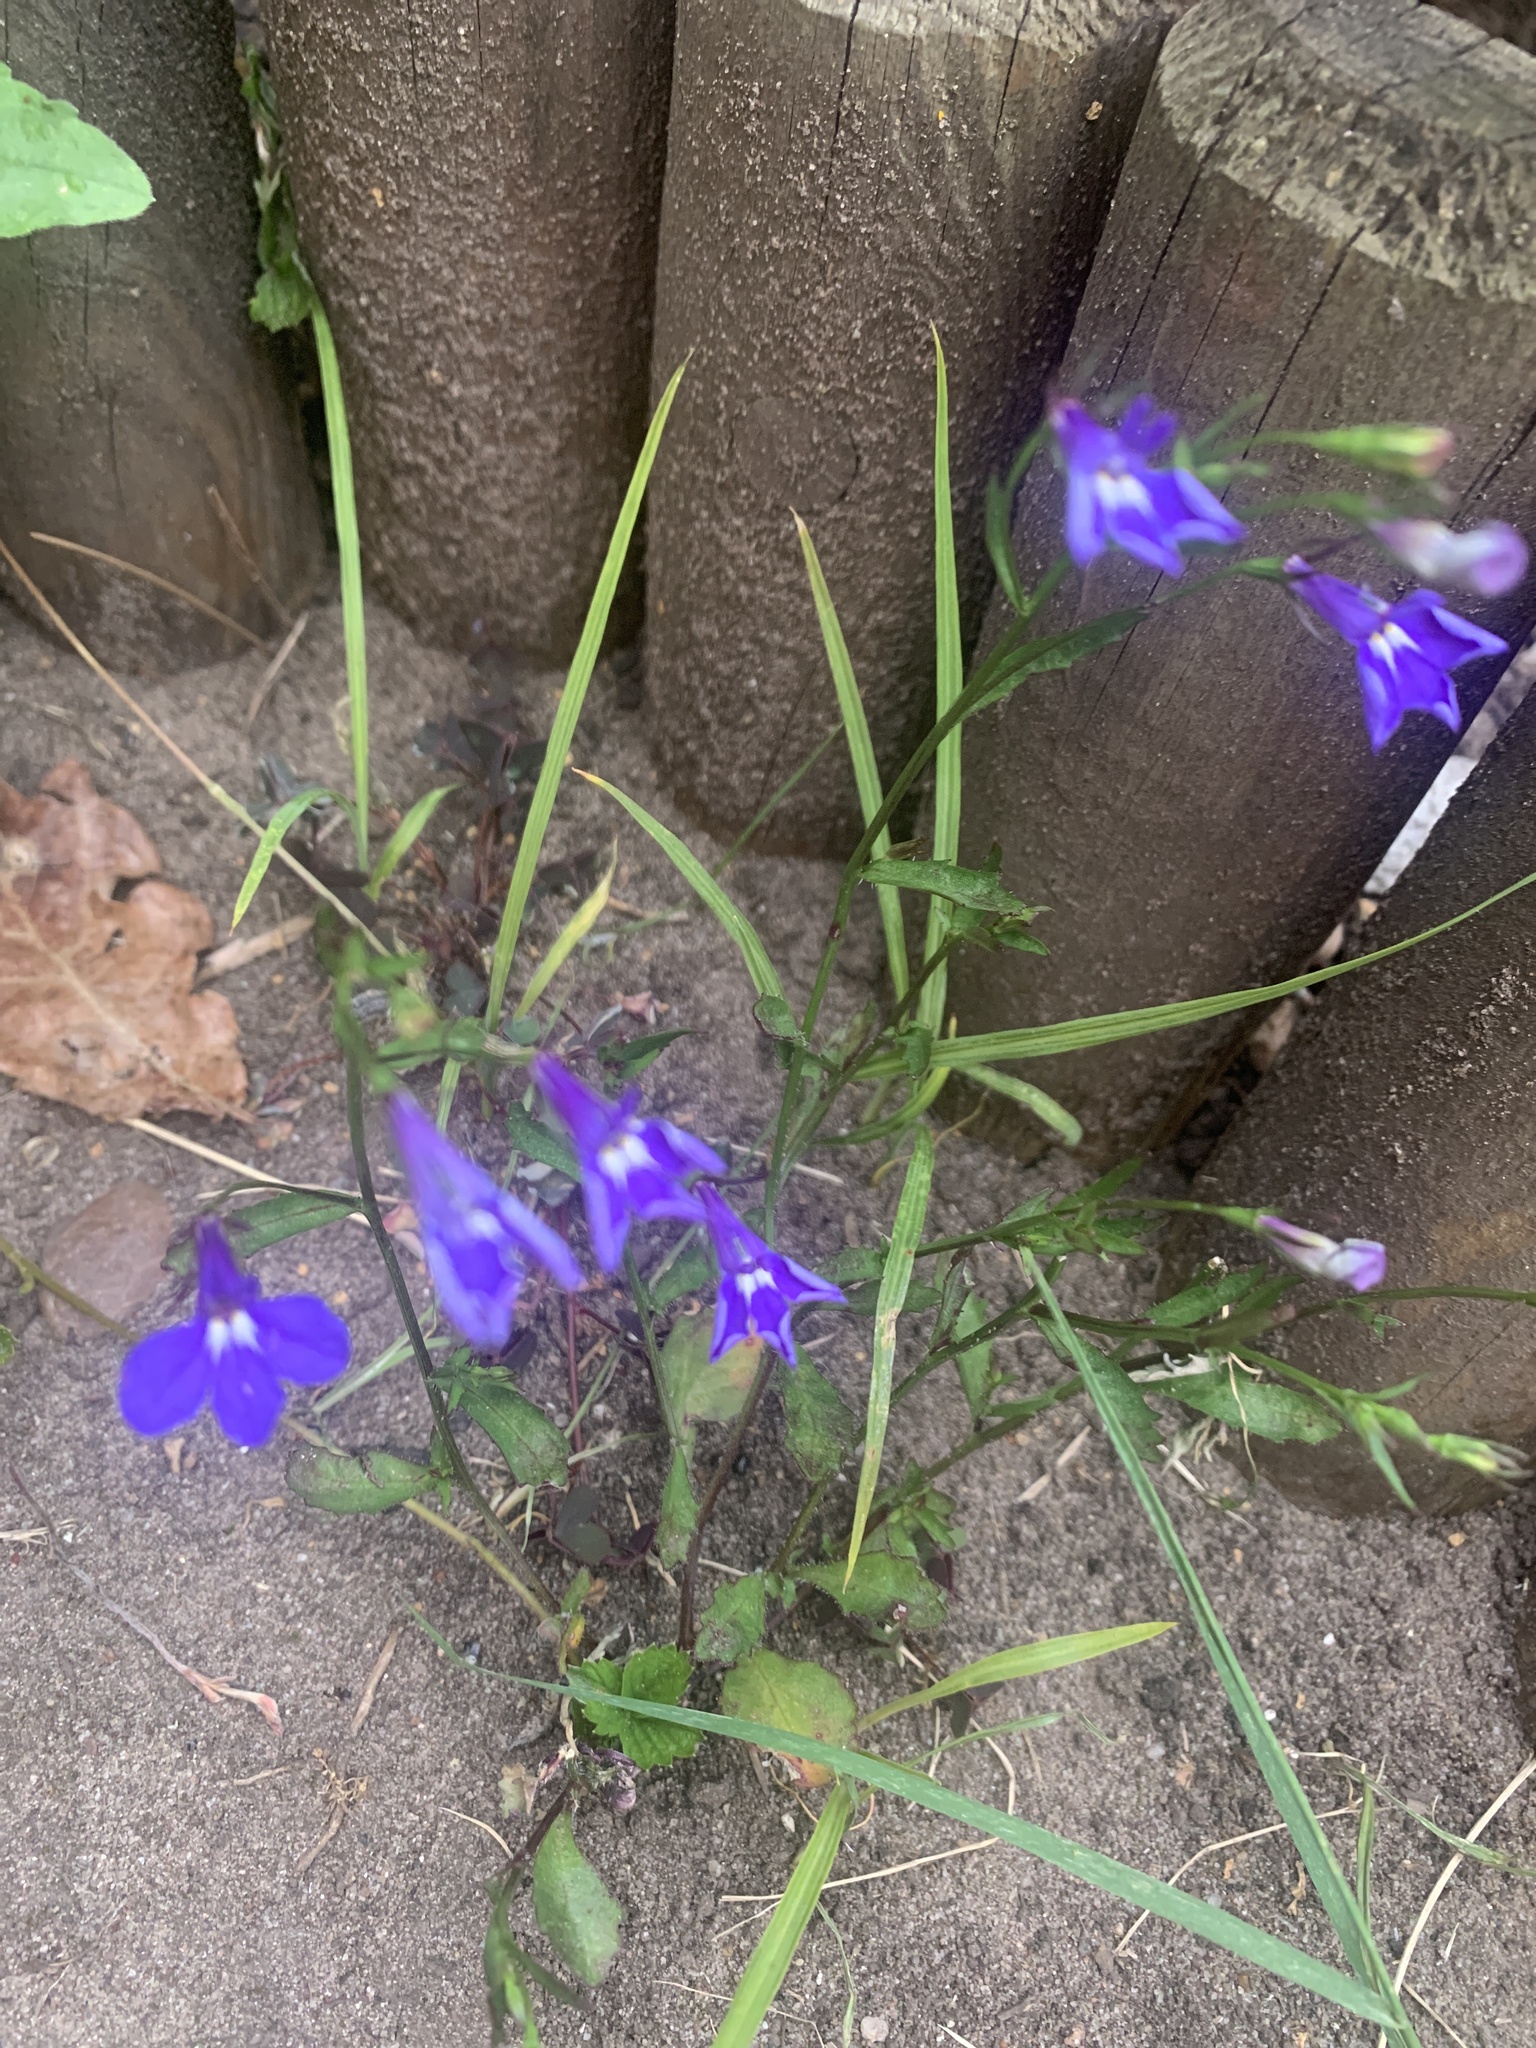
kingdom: Plantae
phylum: Tracheophyta
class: Magnoliopsida
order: Asterales
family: Campanulaceae
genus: Lobelia
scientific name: Lobelia erinus
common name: Edging lobelia
